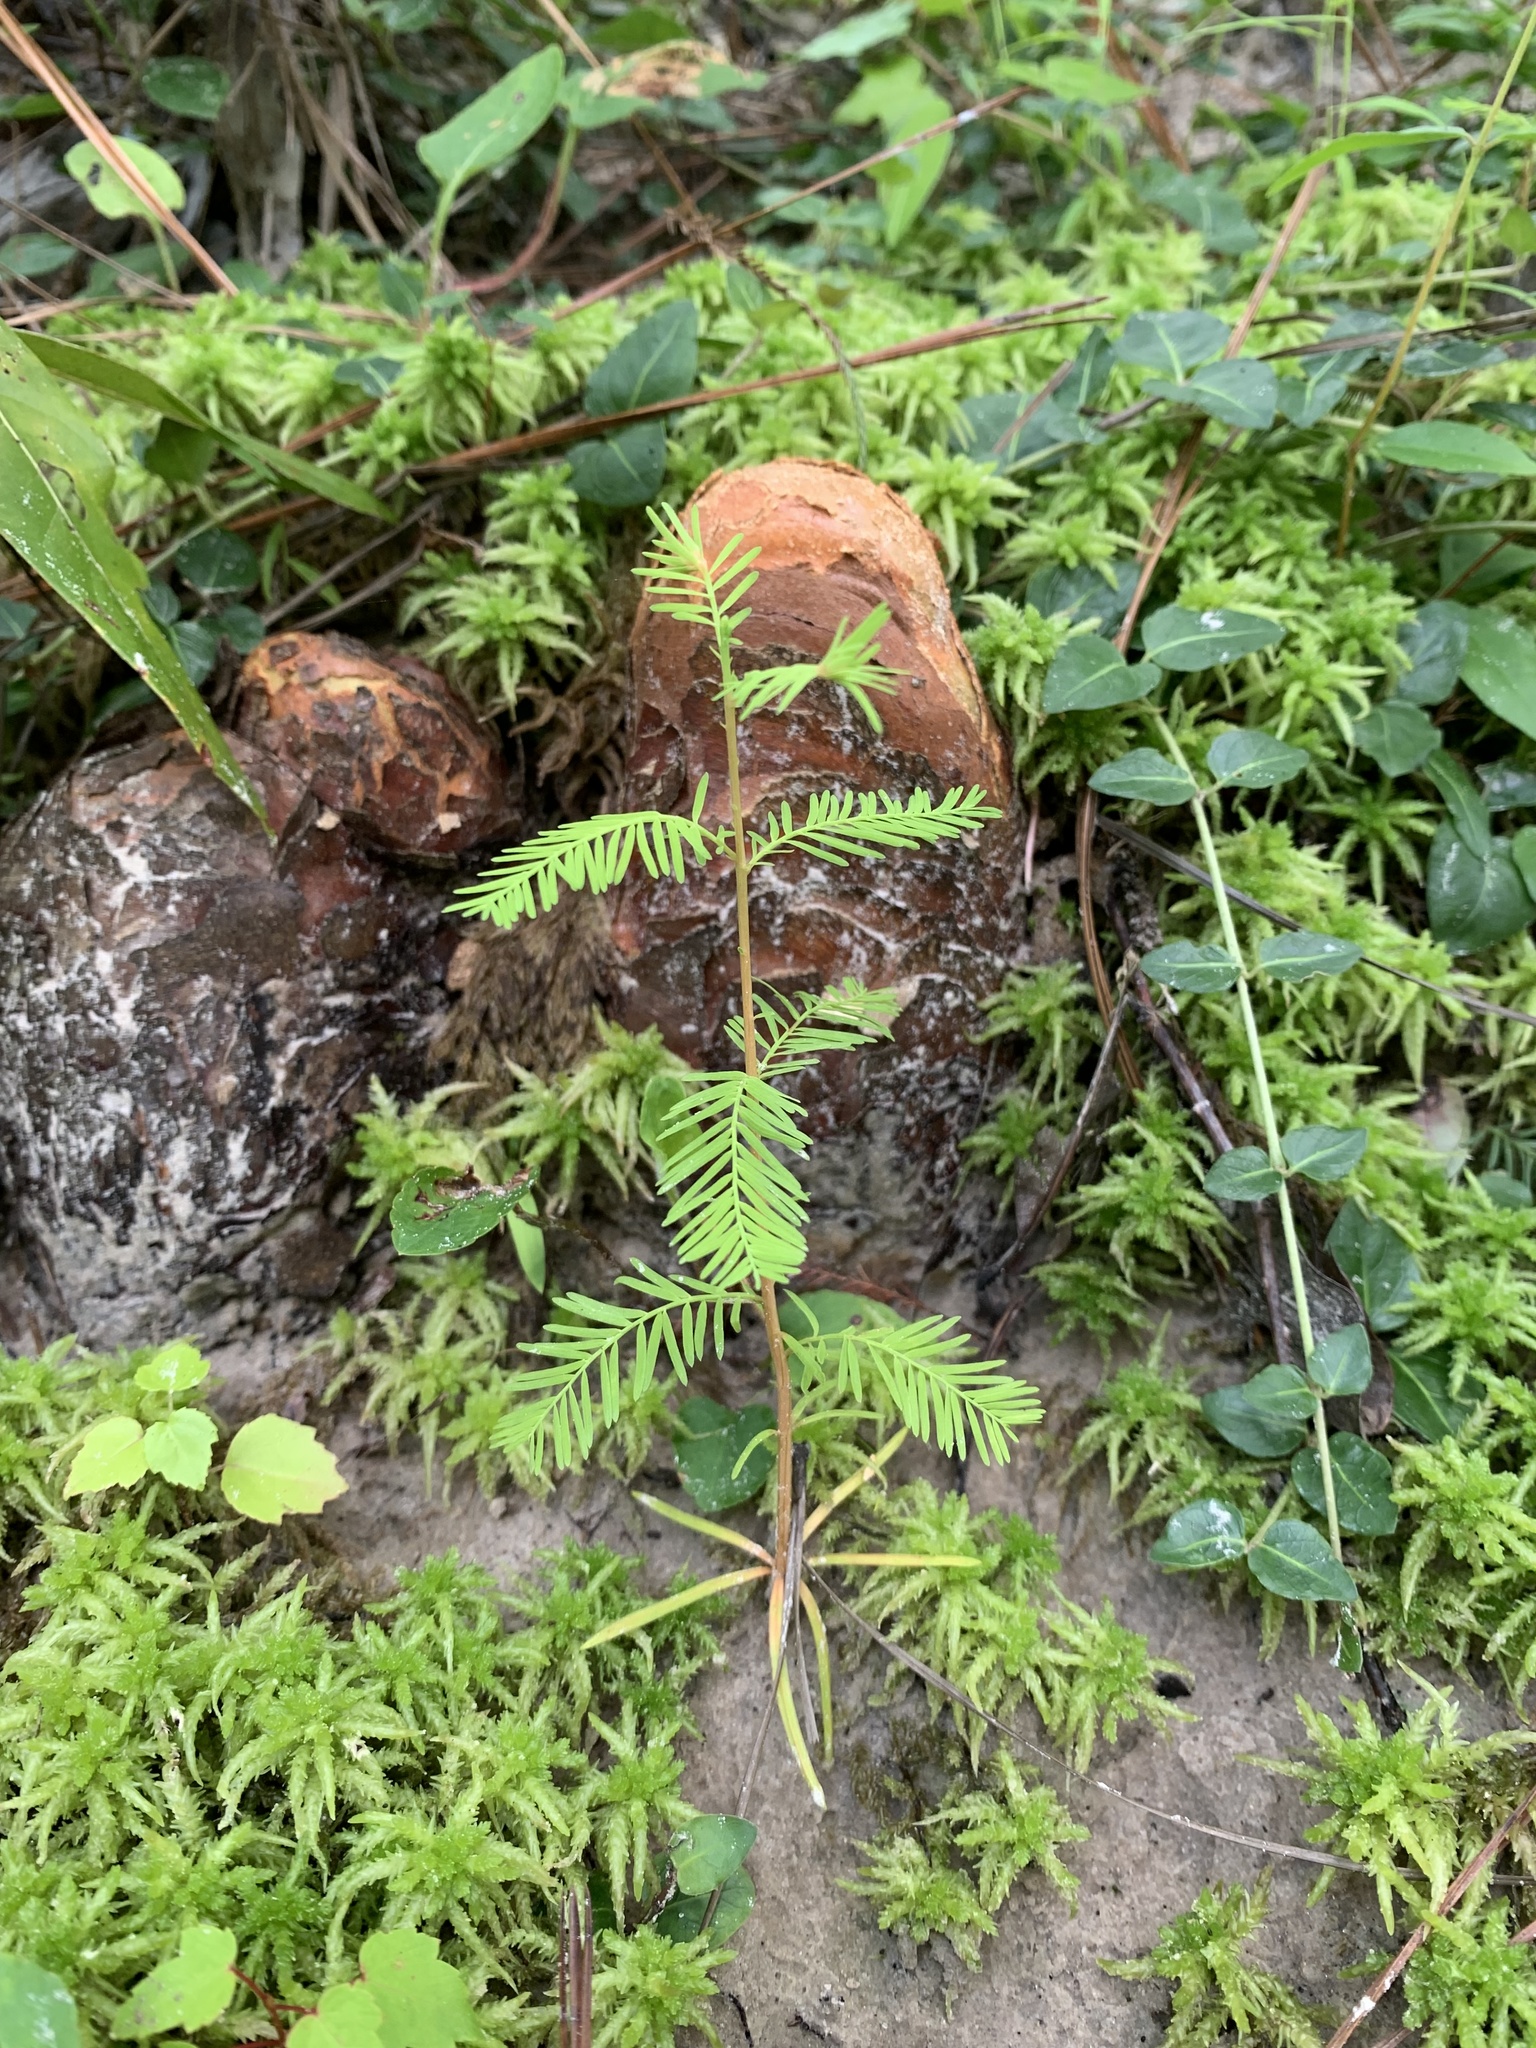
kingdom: Plantae
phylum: Tracheophyta
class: Pinopsida
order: Pinales
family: Cupressaceae
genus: Taxodium
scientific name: Taxodium distichum
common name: Bald cypress
